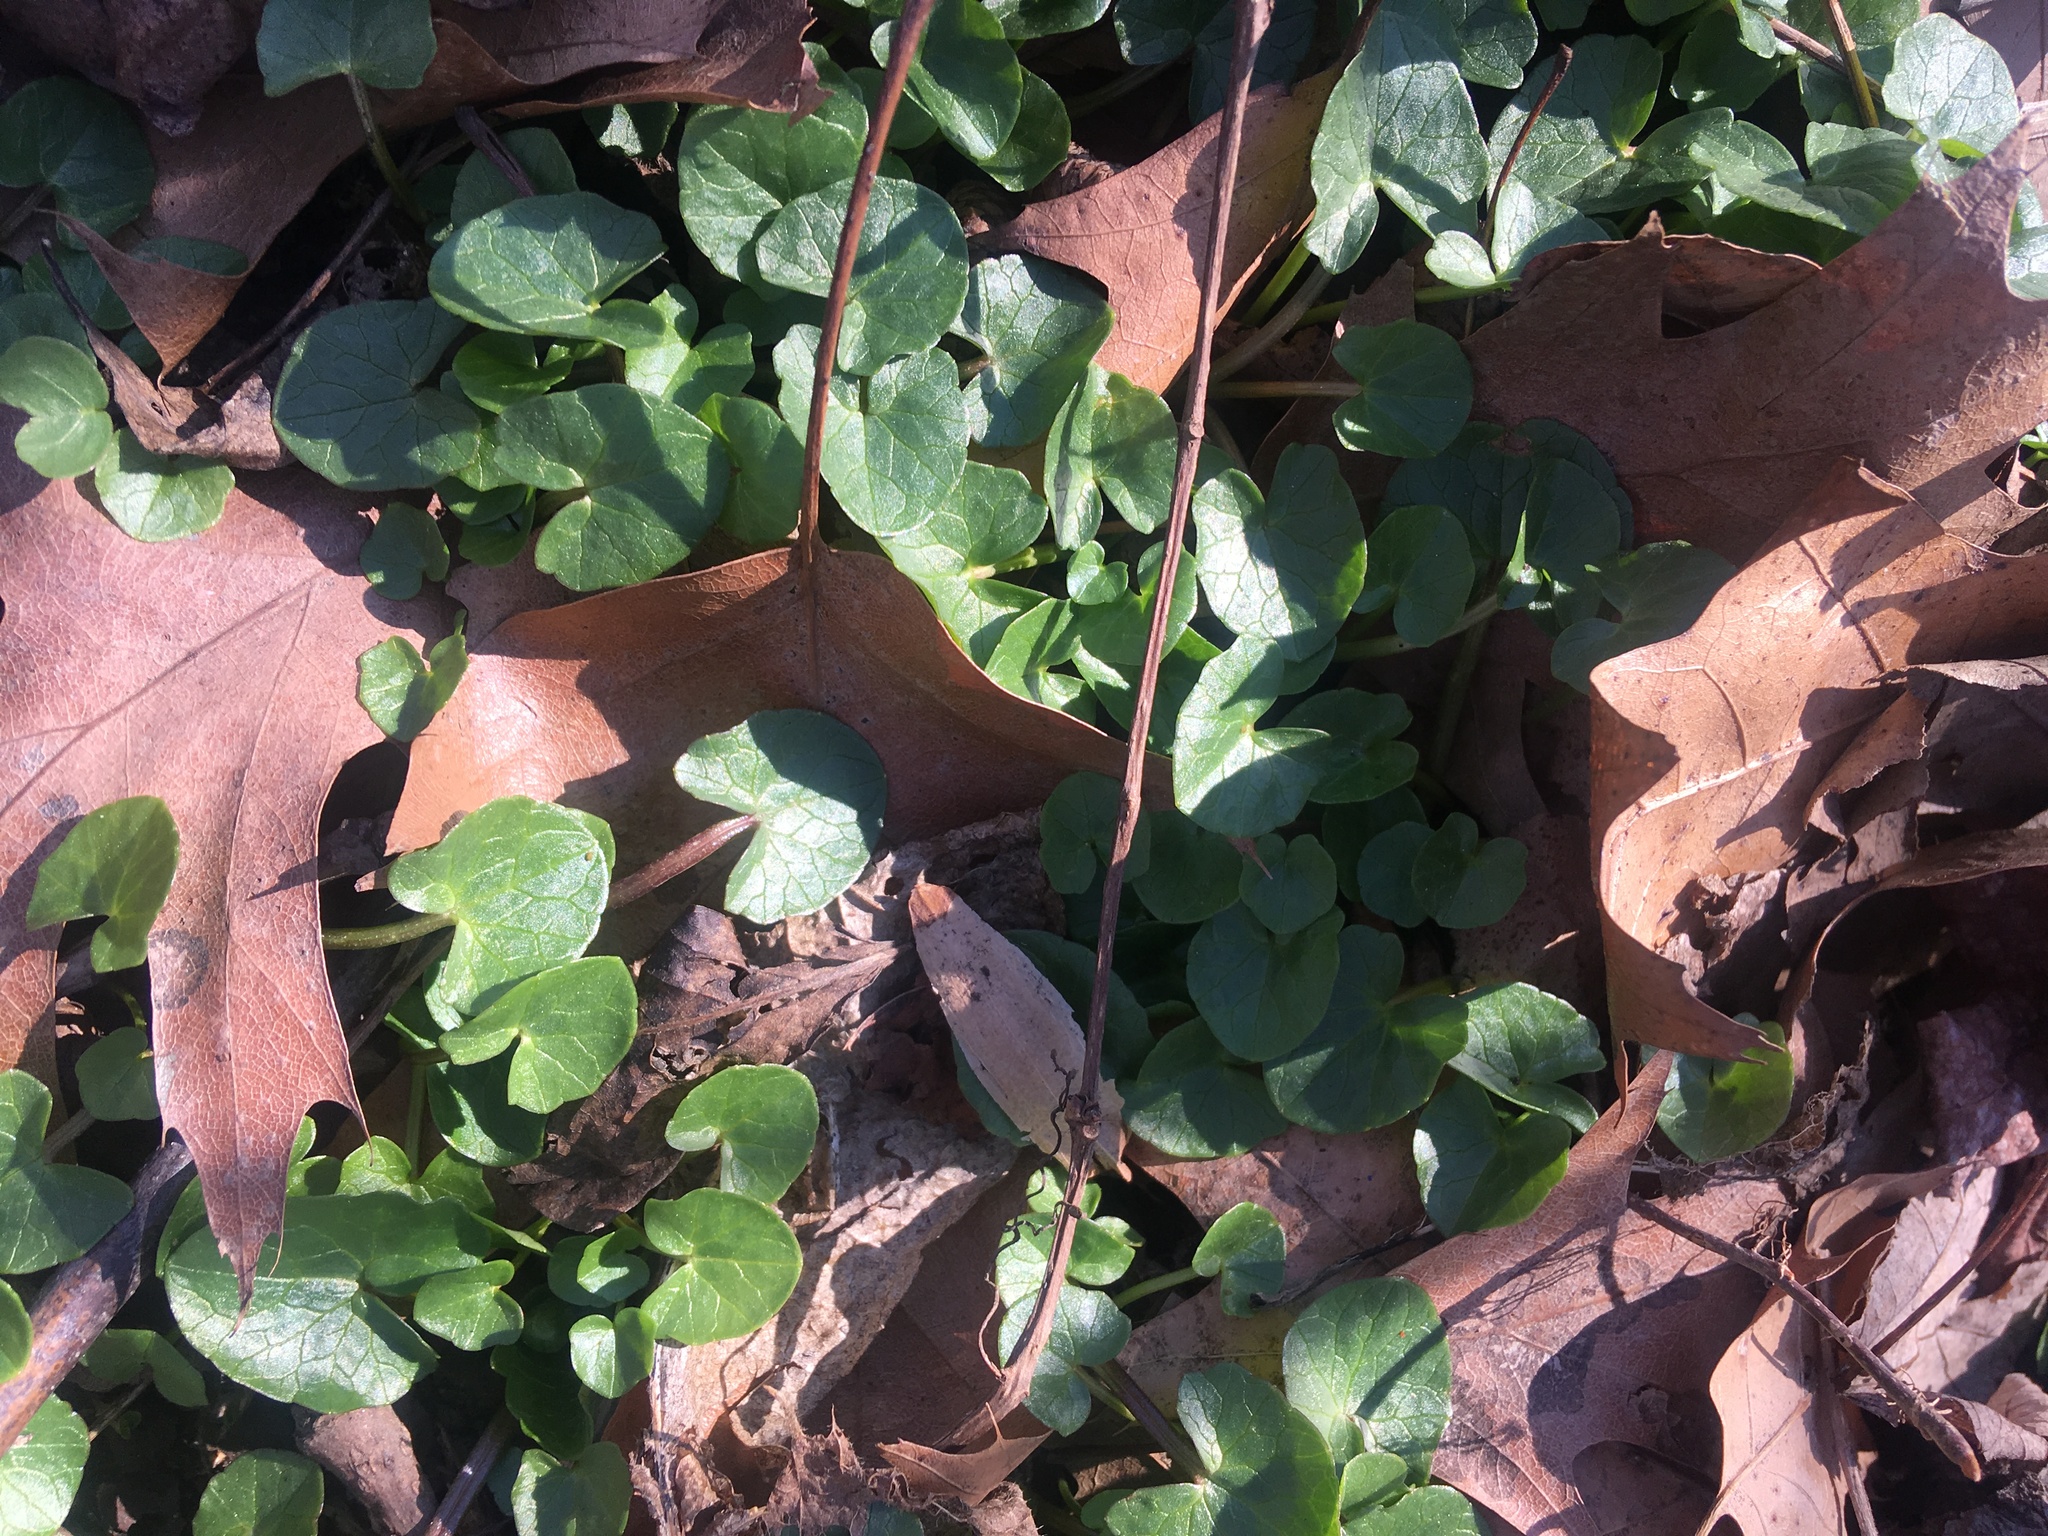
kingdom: Plantae
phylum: Tracheophyta
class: Magnoliopsida
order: Ranunculales
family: Ranunculaceae
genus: Ficaria
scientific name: Ficaria verna
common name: Lesser celandine
